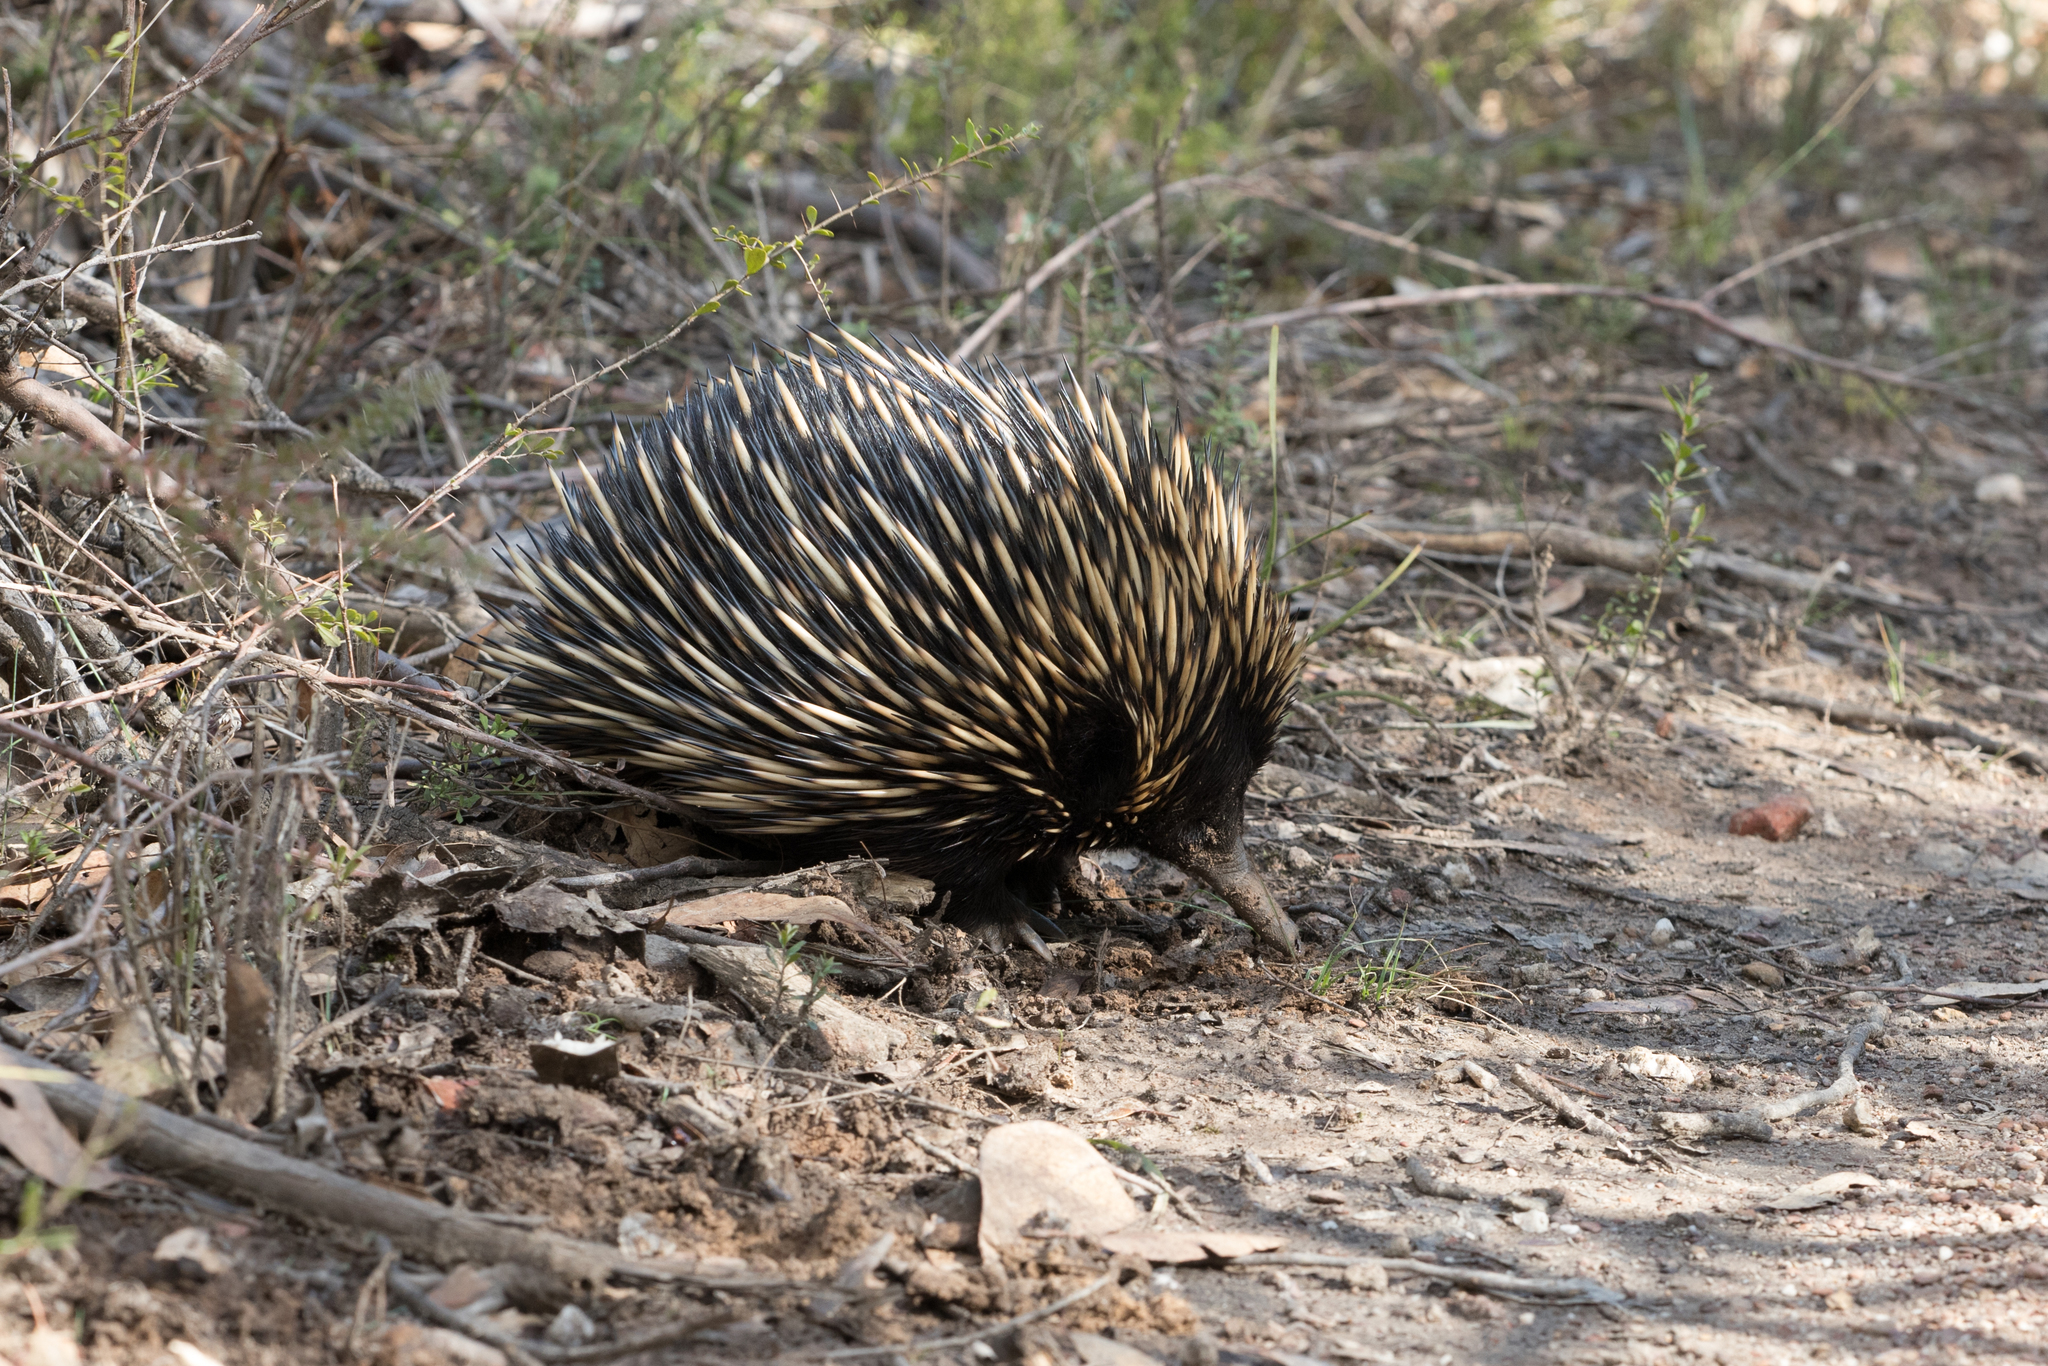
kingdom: Animalia
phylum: Chordata
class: Mammalia
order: Monotremata
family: Tachyglossidae
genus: Tachyglossus
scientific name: Tachyglossus aculeatus
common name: Short-beaked echidna
